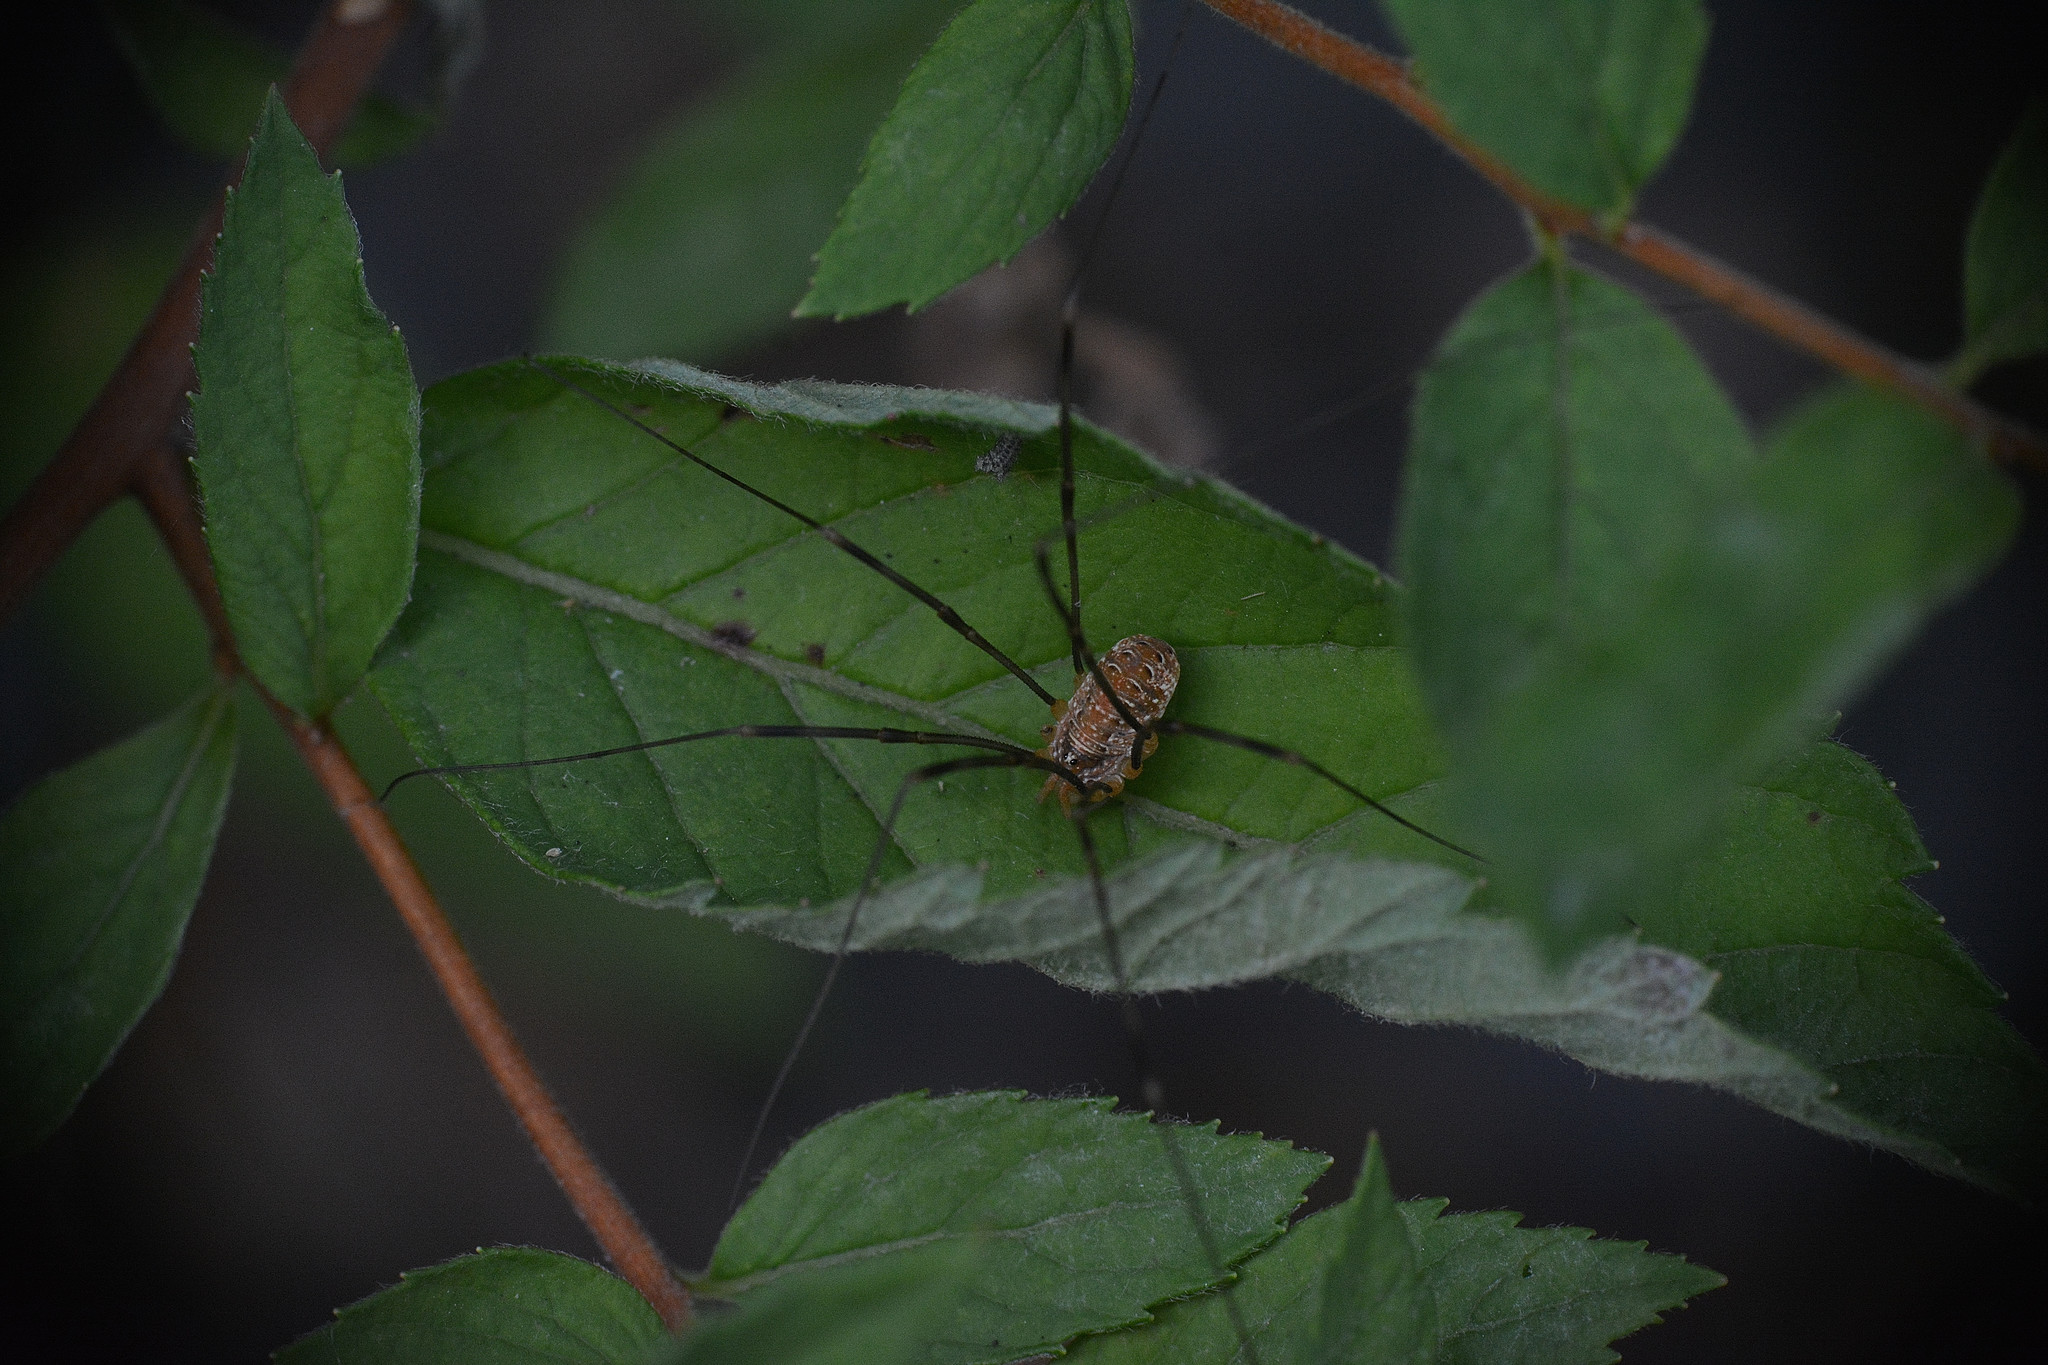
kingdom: Animalia
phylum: Arthropoda
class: Arachnida
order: Opiliones
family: Phalangiidae
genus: Opilio
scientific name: Opilio canestrinii
